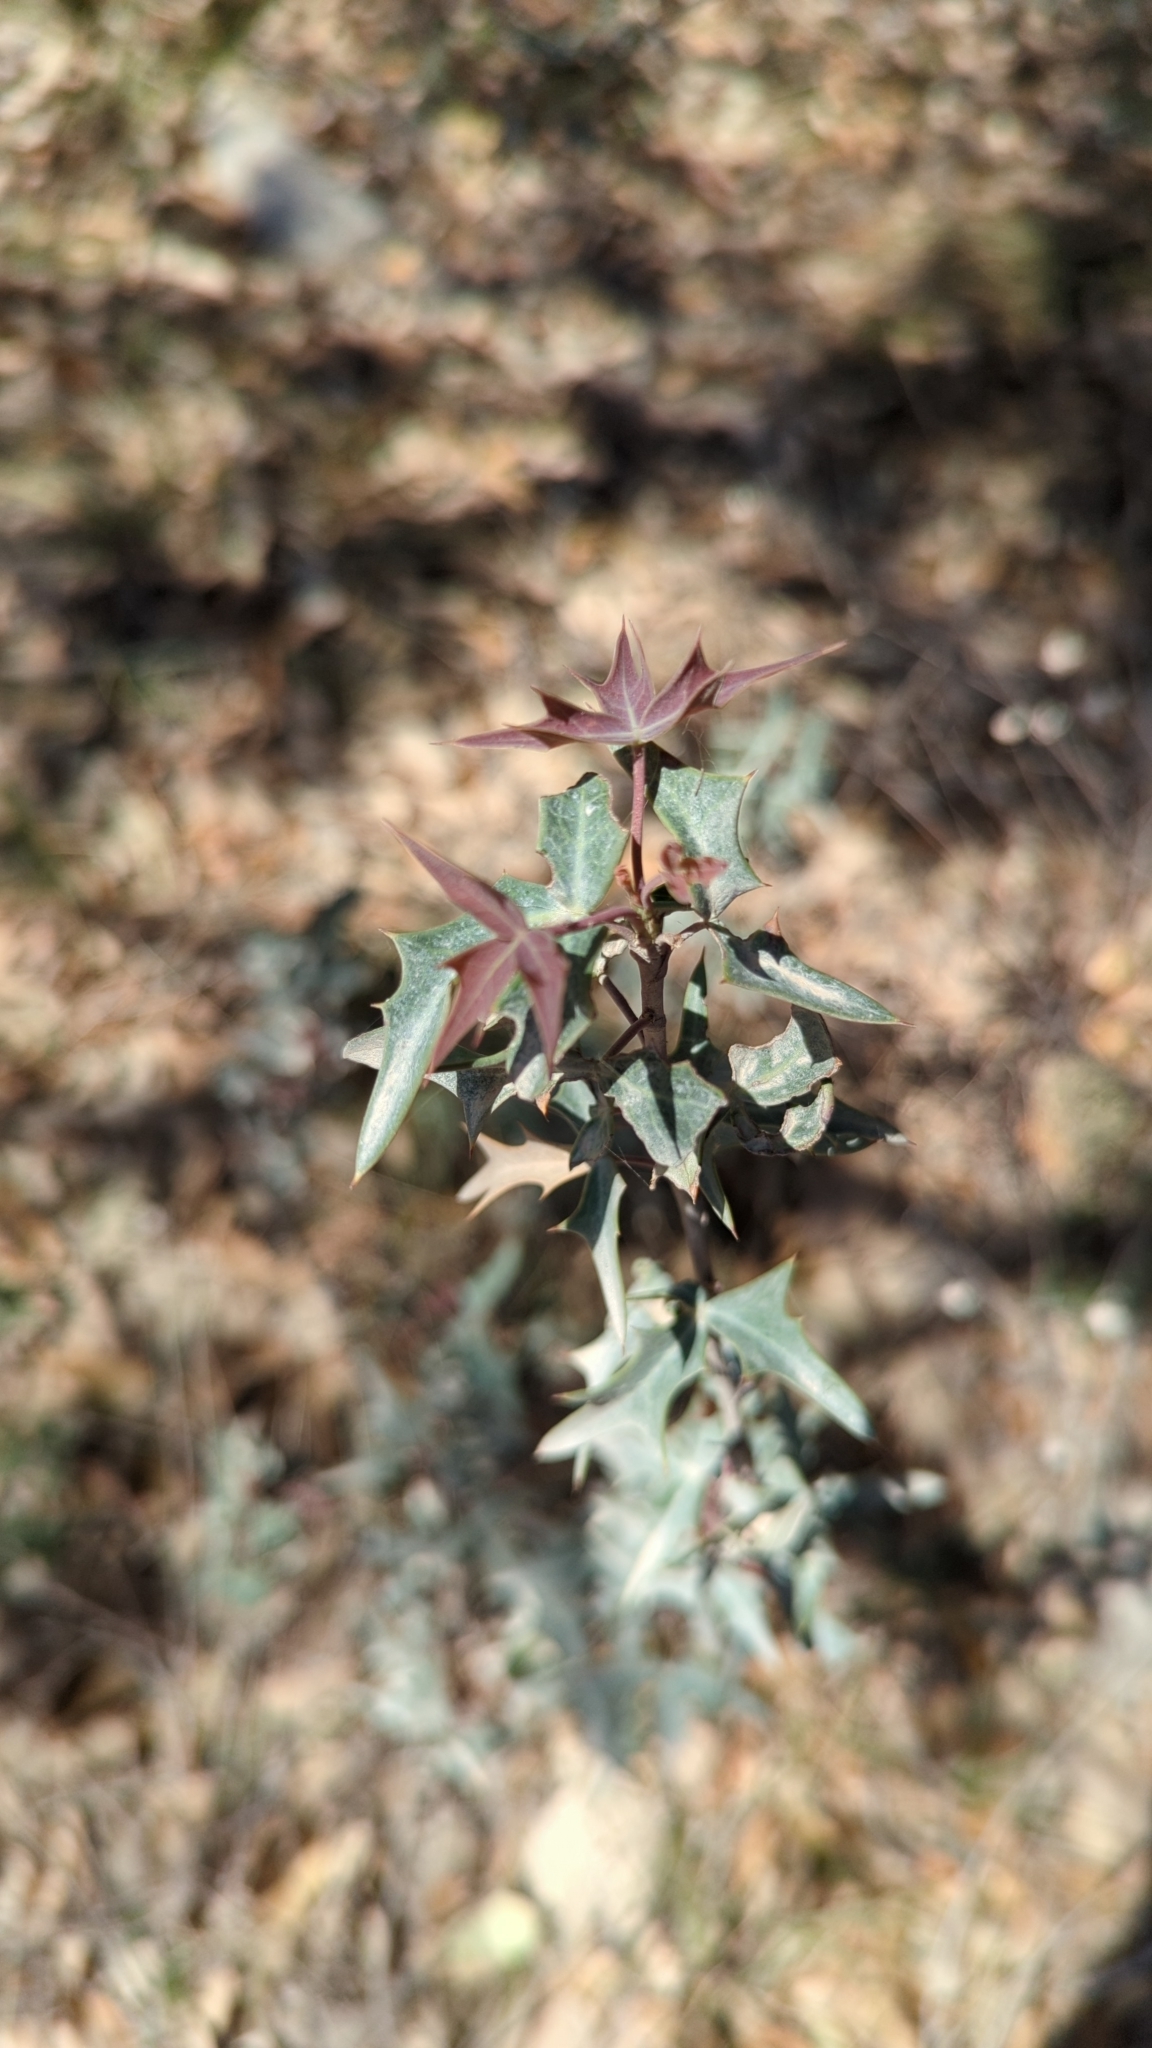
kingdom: Plantae
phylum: Tracheophyta
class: Magnoliopsida
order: Ranunculales
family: Berberidaceae
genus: Alloberberis
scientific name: Alloberberis trifoliolata
